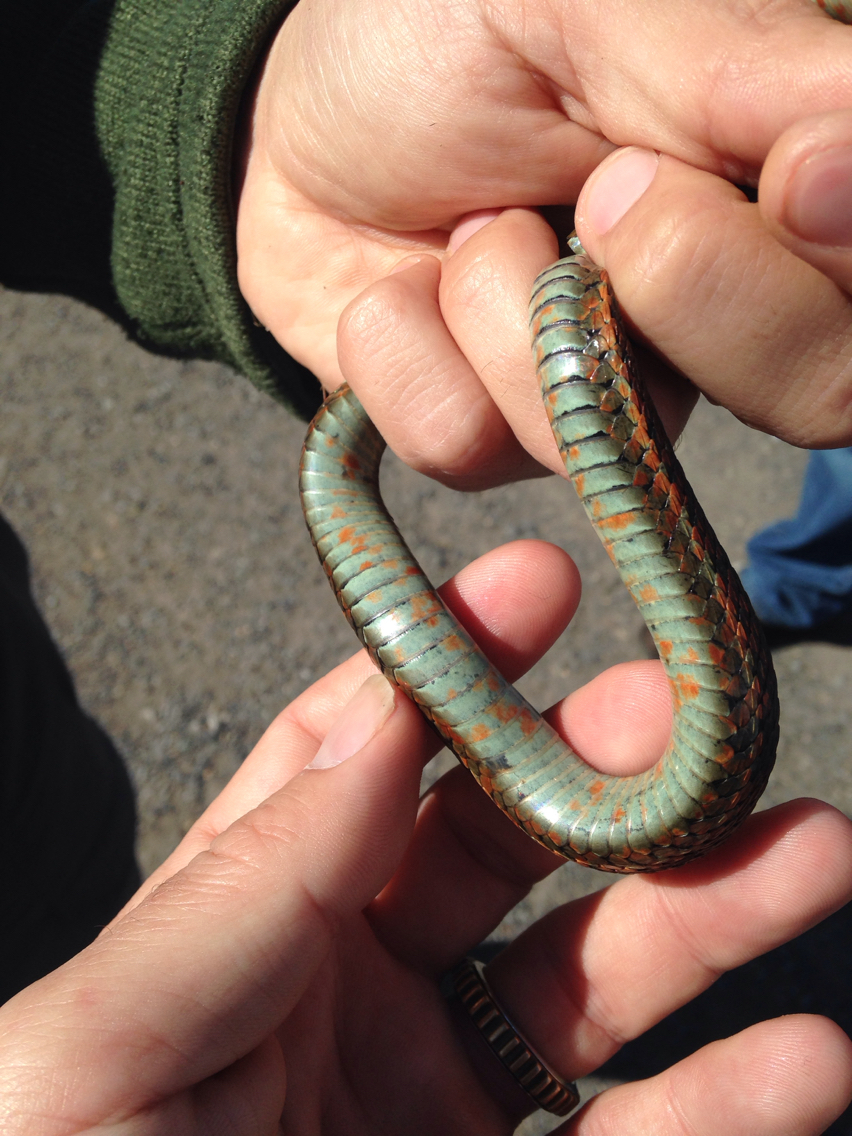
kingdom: Animalia
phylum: Chordata
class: Squamata
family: Colubridae
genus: Thamnophis
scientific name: Thamnophis elegans
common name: Western terrestrial garter snake
